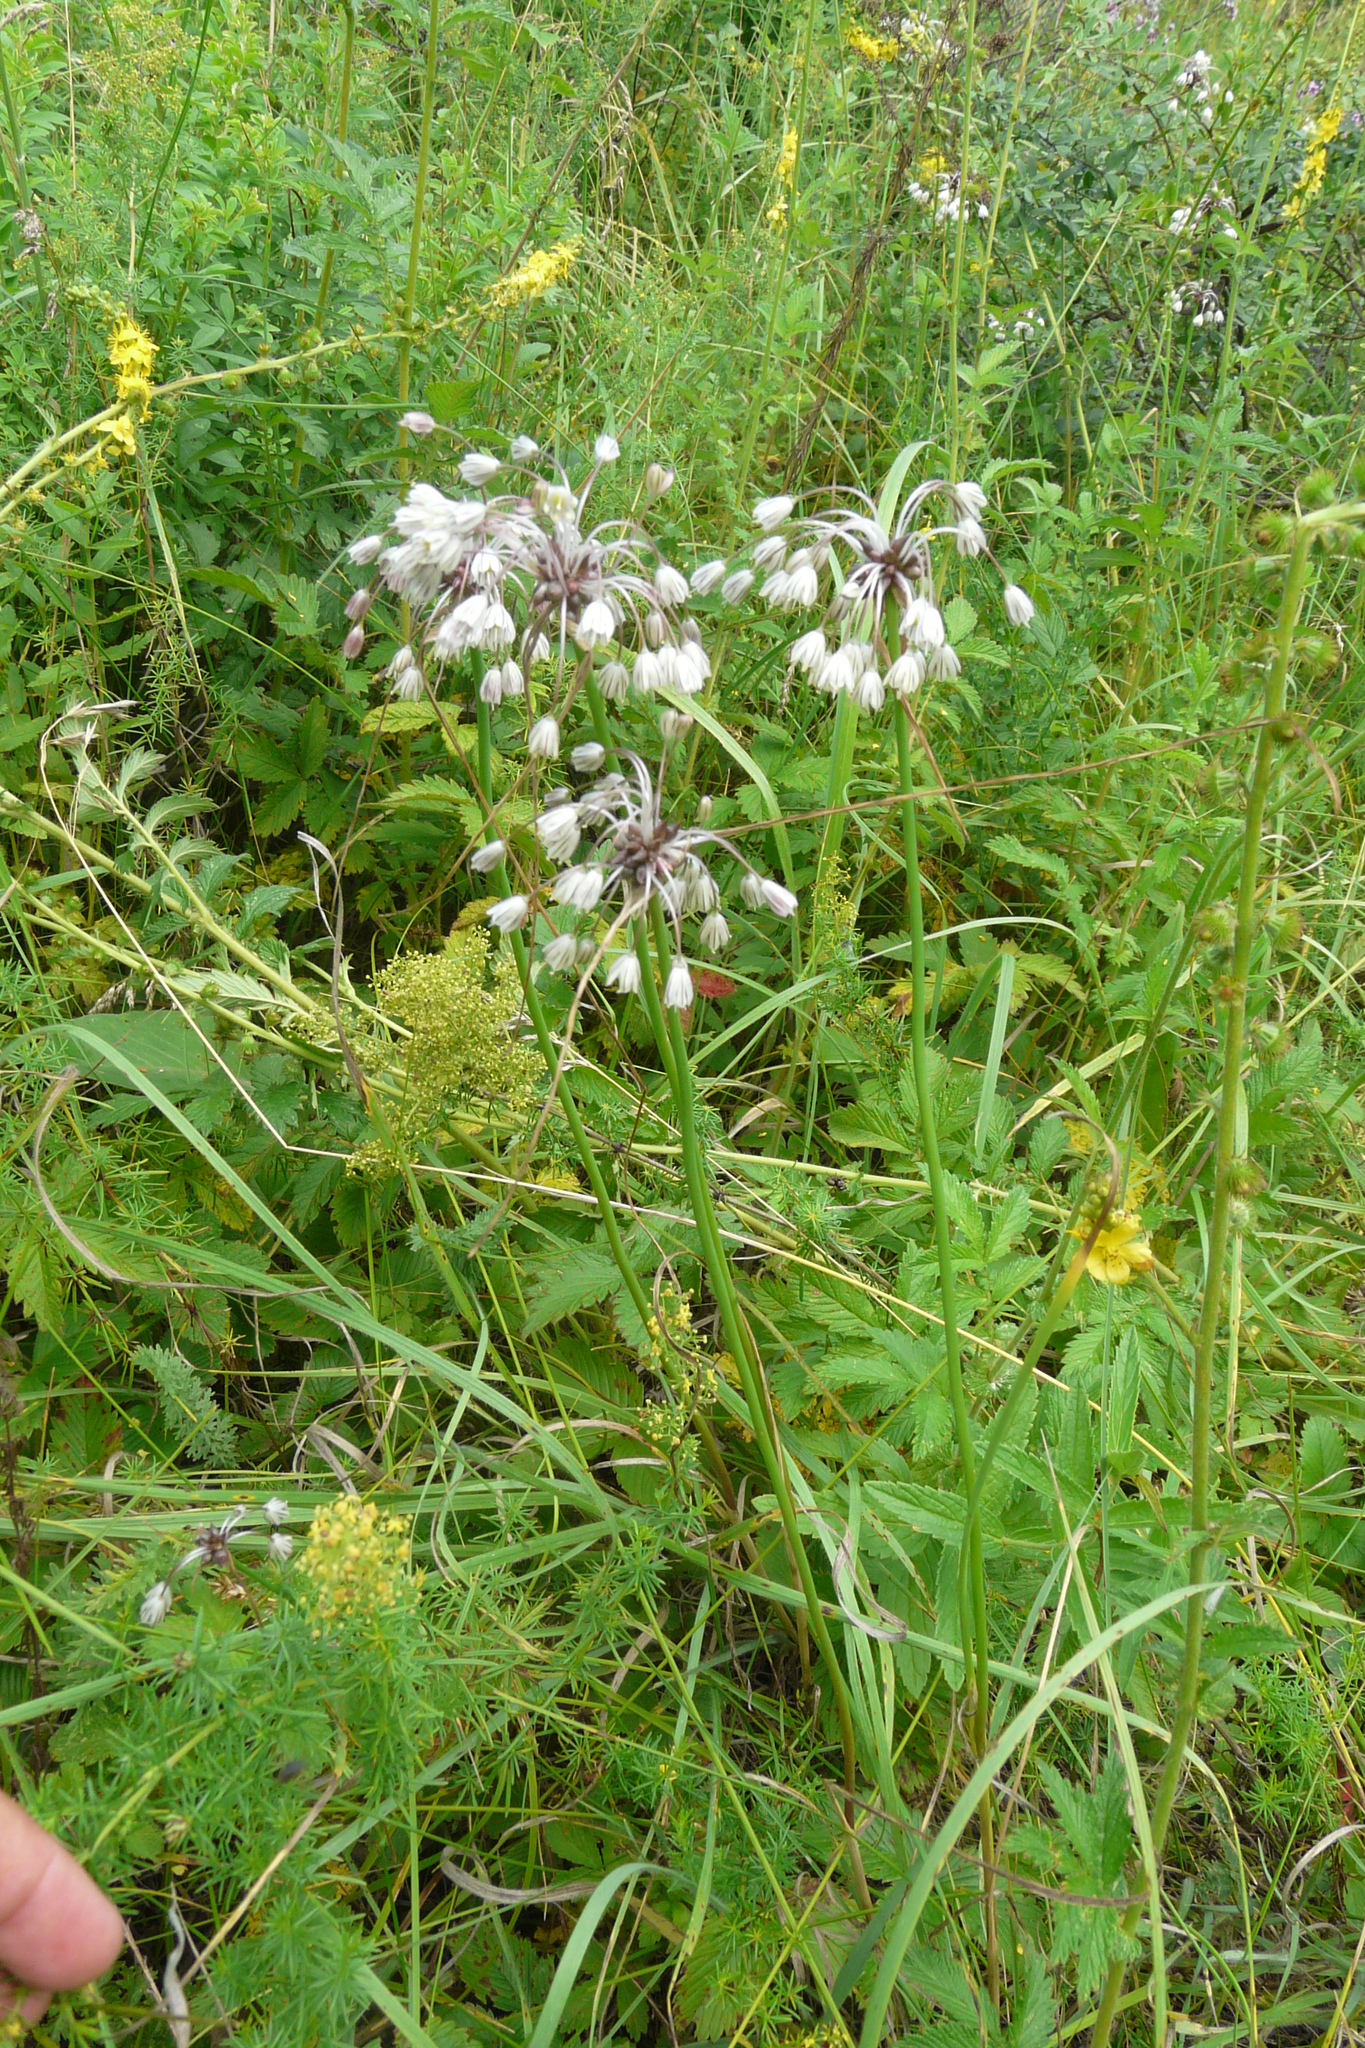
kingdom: Plantae
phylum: Tracheophyta
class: Liliopsida
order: Asparagales
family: Amaryllidaceae
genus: Allium
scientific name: Allium oleraceum
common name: Field garlic
